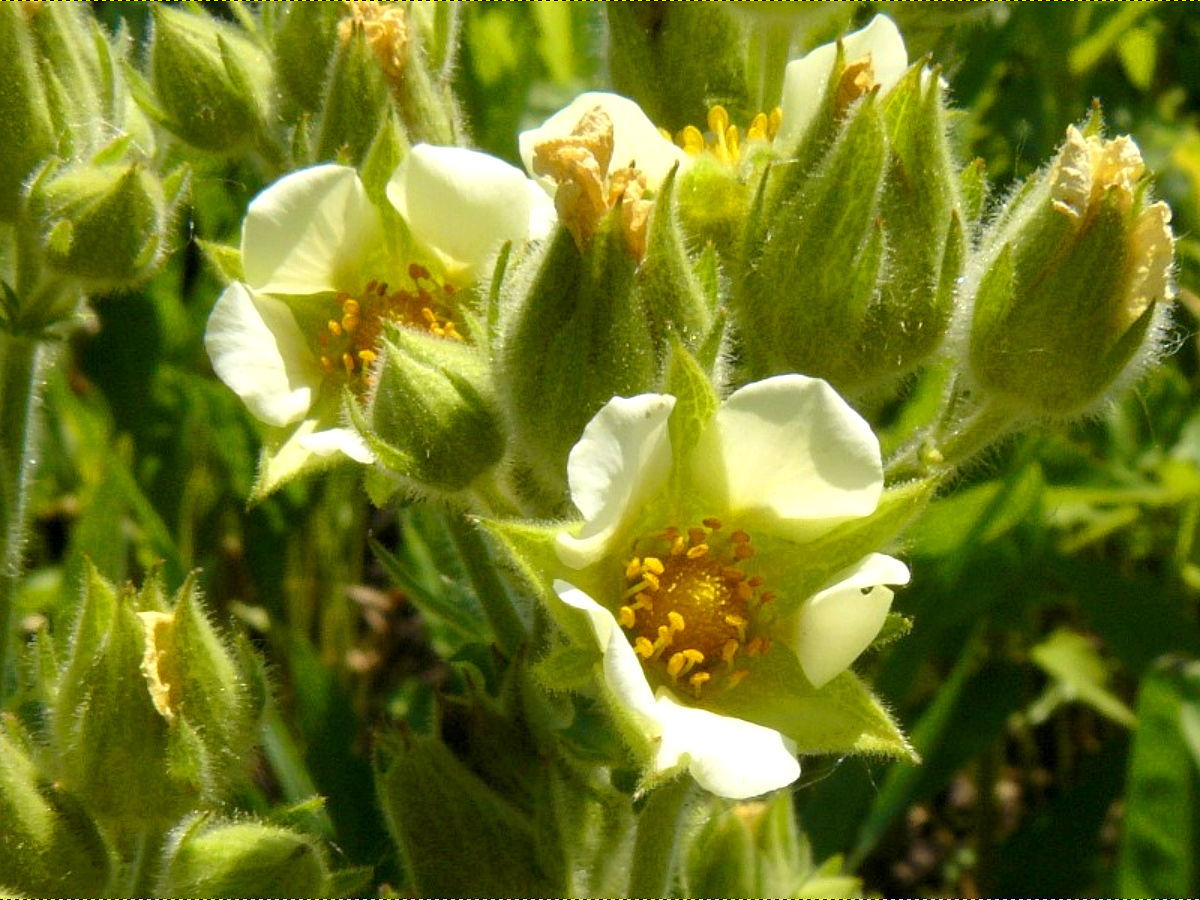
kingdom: Plantae
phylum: Tracheophyta
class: Magnoliopsida
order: Rosales
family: Rosaceae
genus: Drymocallis
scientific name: Drymocallis arguta
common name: Tall cinquefoil
